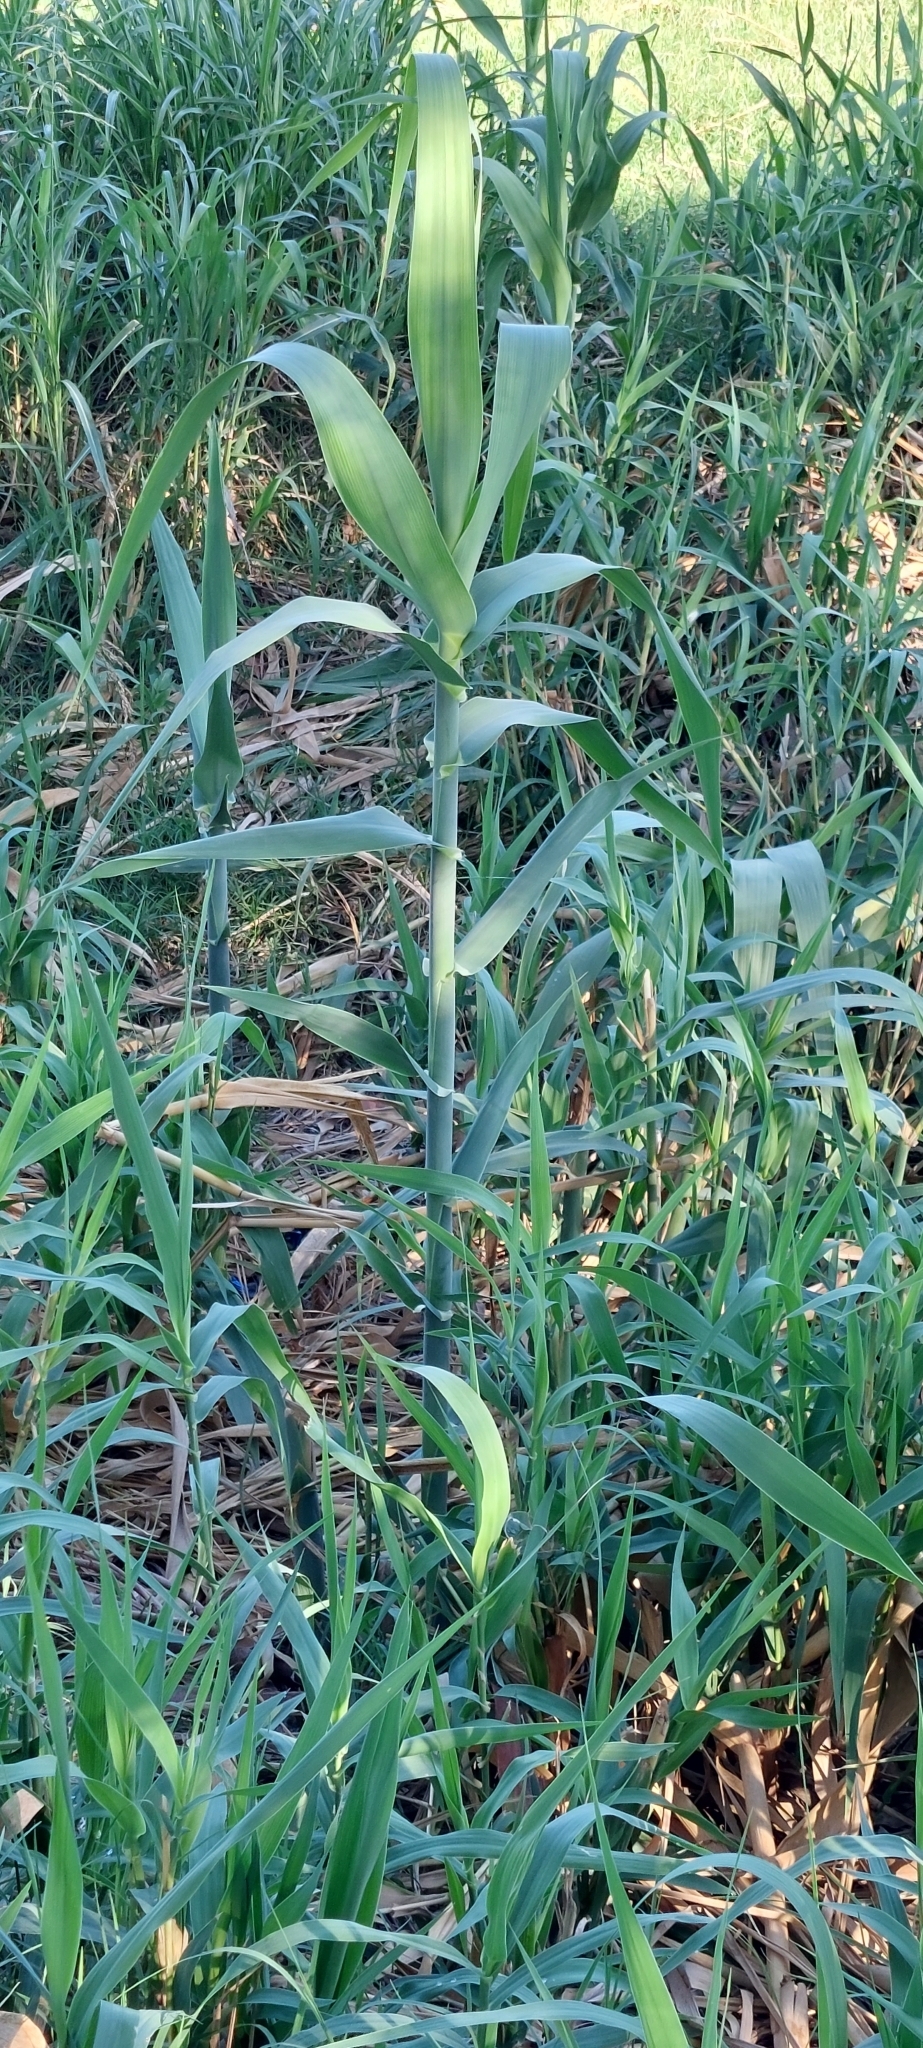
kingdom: Plantae
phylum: Tracheophyta
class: Liliopsida
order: Poales
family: Poaceae
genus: Arundo
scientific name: Arundo donax
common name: Giant reed
